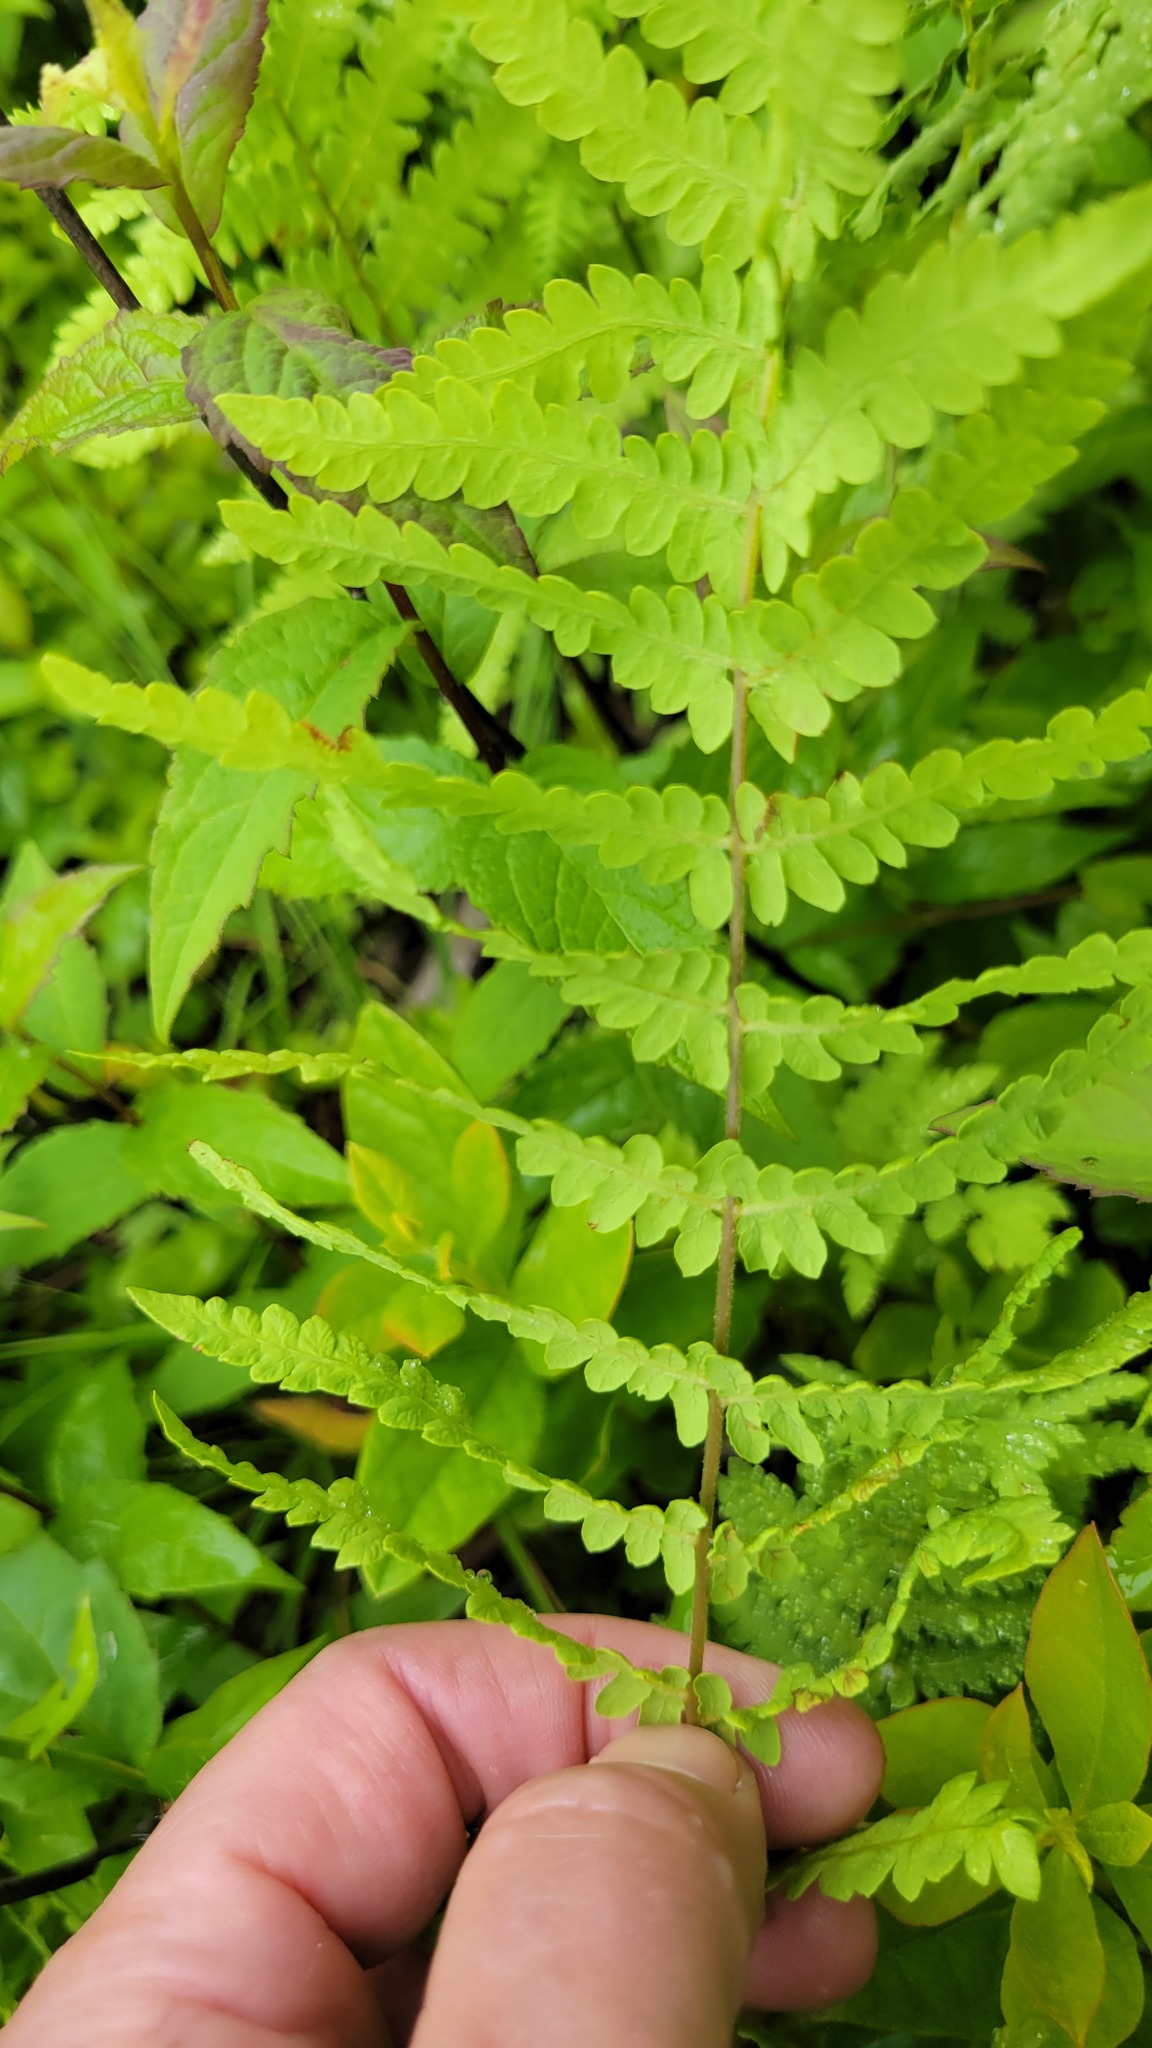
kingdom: Plantae
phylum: Tracheophyta
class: Polypodiopsida
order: Polypodiales
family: Thelypteridaceae
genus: Thelypteris
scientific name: Thelypteris palustris
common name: Marsh fern
